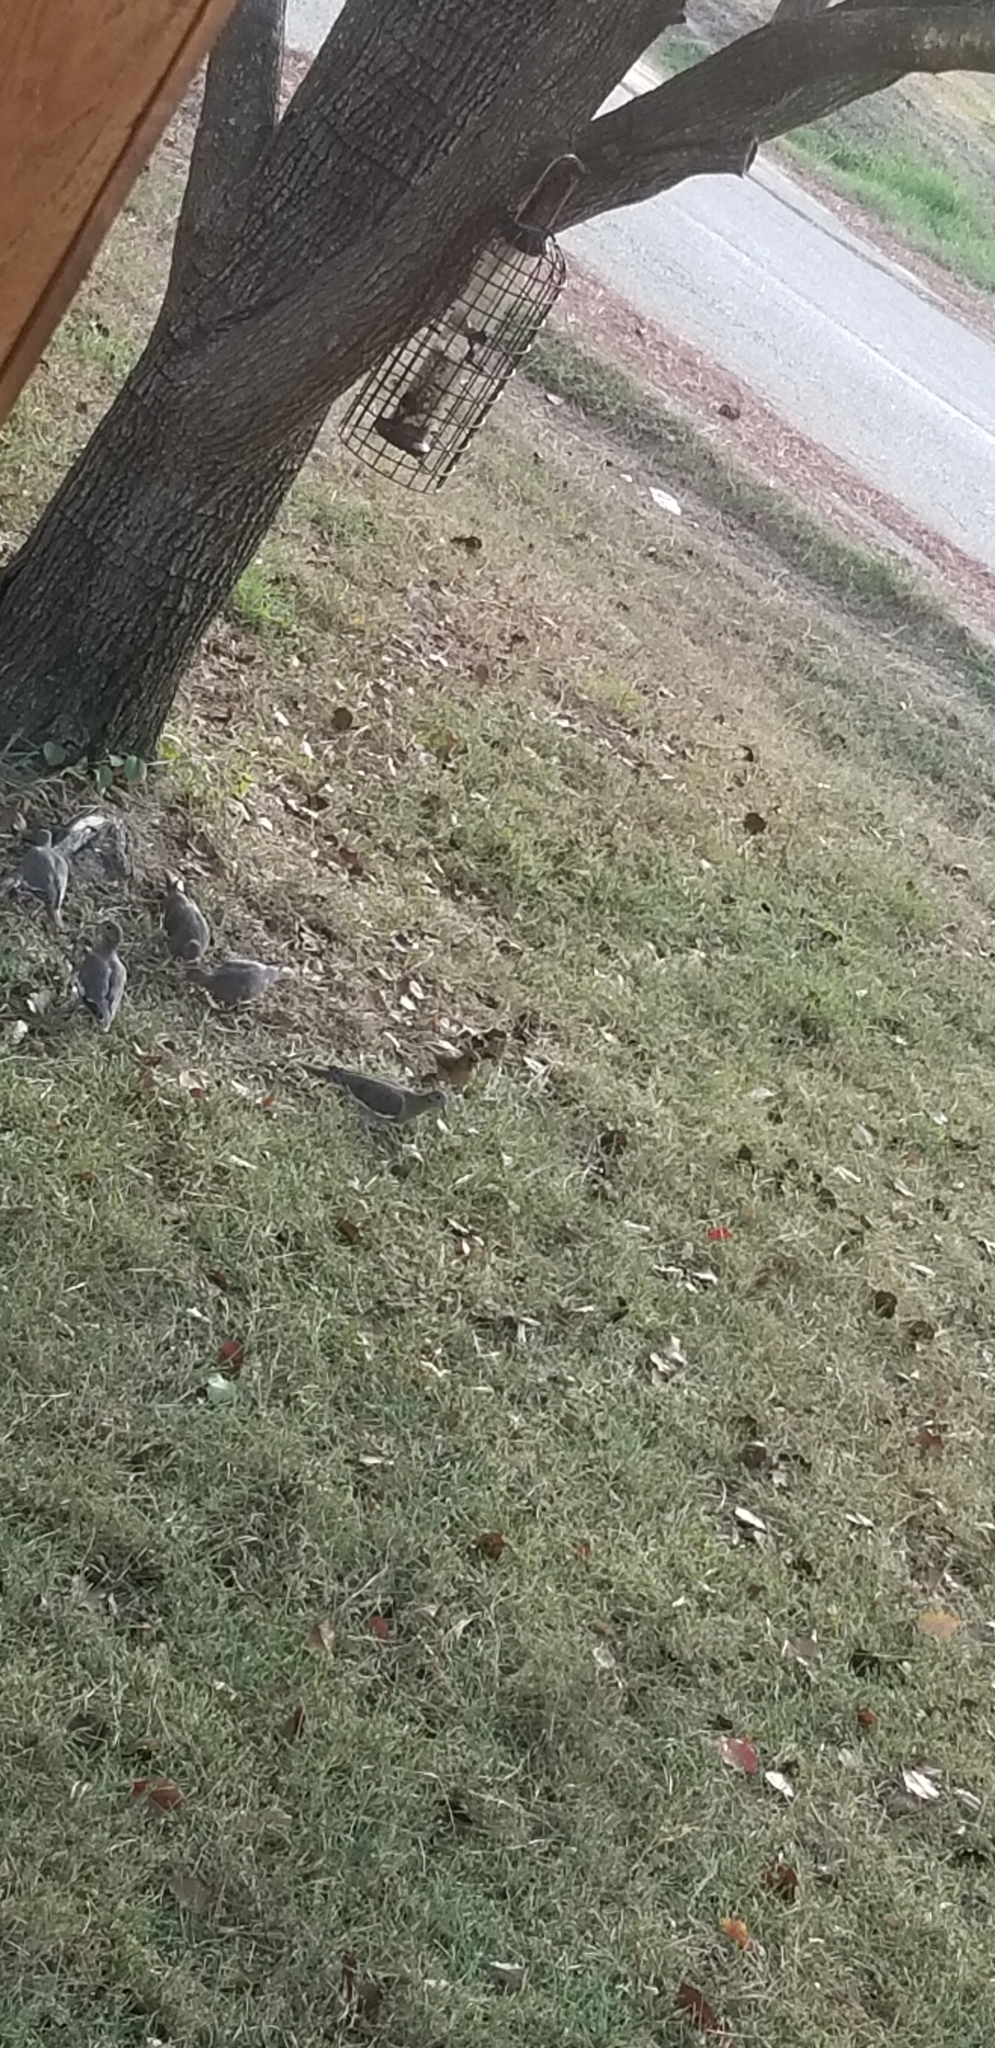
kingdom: Animalia
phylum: Chordata
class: Aves
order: Columbiformes
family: Columbidae
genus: Zenaida
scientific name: Zenaida asiatica
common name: White-winged dove
